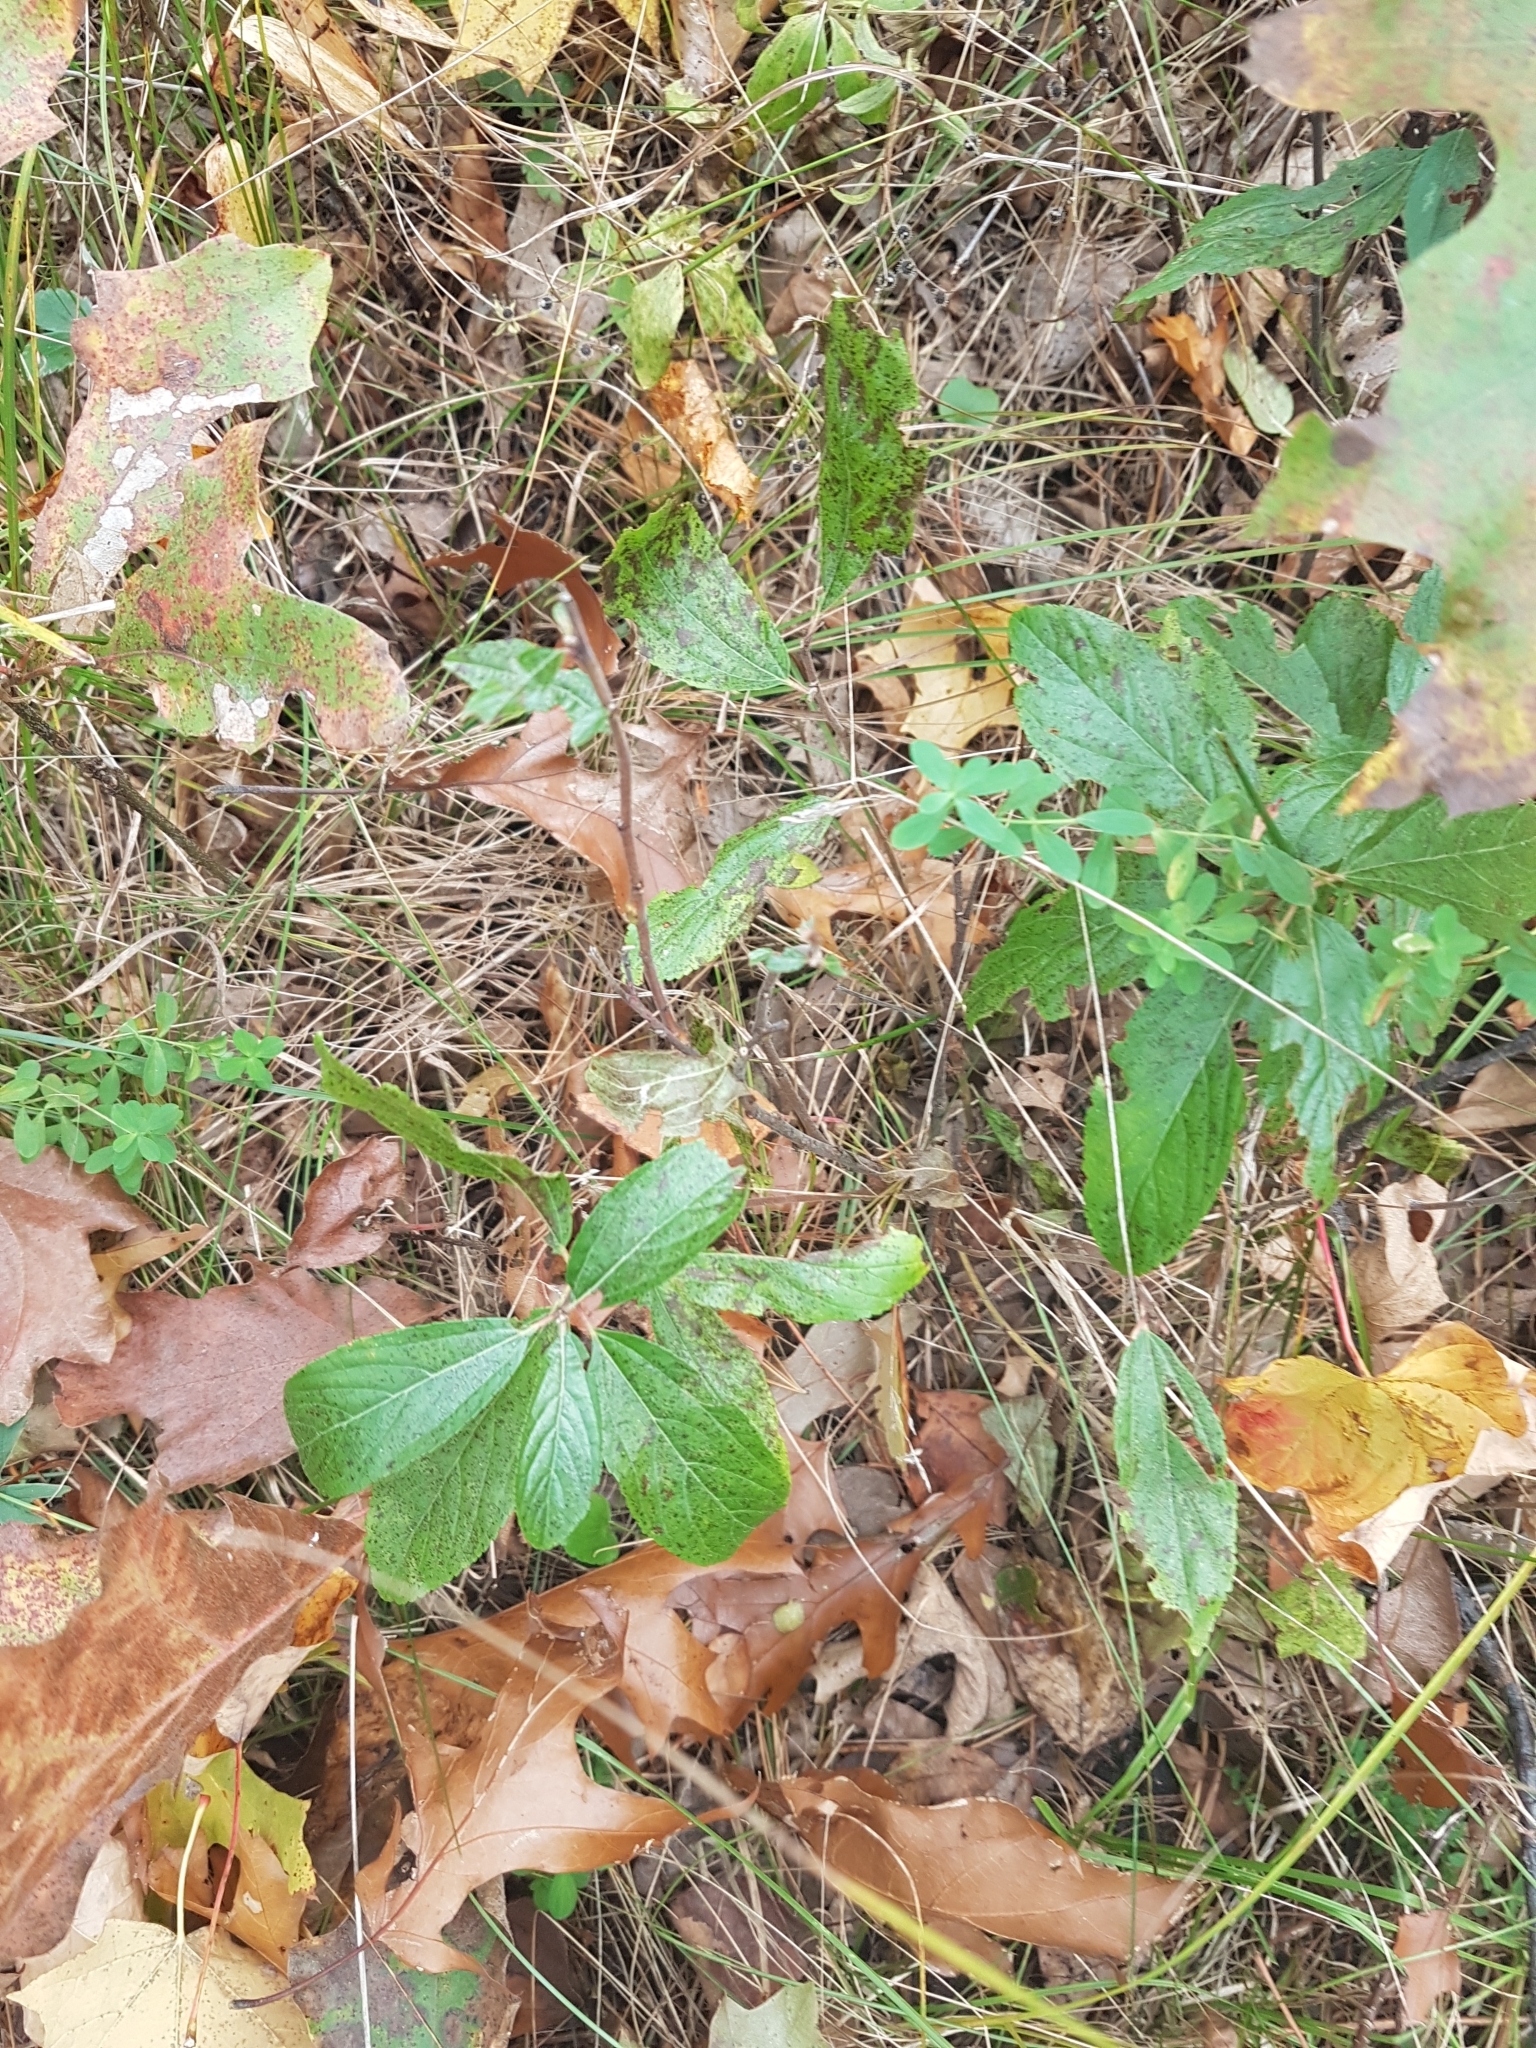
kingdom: Plantae
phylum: Tracheophyta
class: Magnoliopsida
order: Rosales
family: Rhamnaceae
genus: Ceanothus
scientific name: Ceanothus herbaceus
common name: Inland ceanothus
